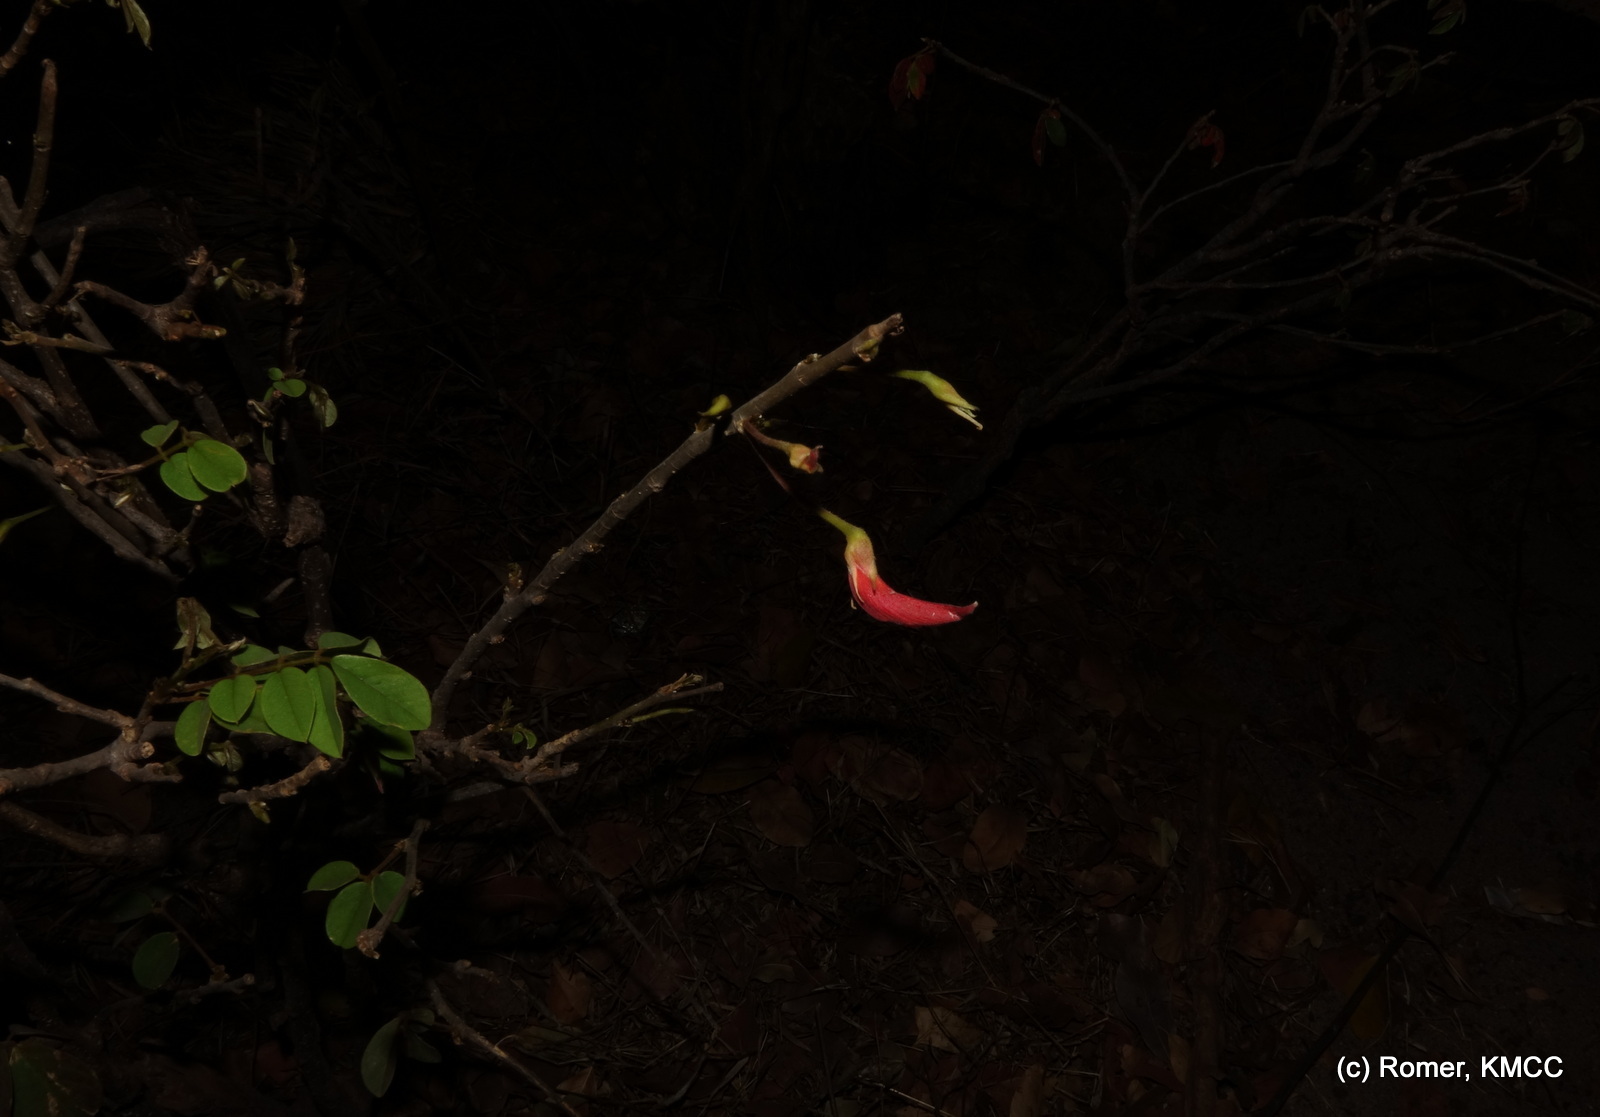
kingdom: Plantae
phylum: Tracheophyta
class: Magnoliopsida
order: Fabales
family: Fabaceae
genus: Chadsia
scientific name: Chadsia versicolor
